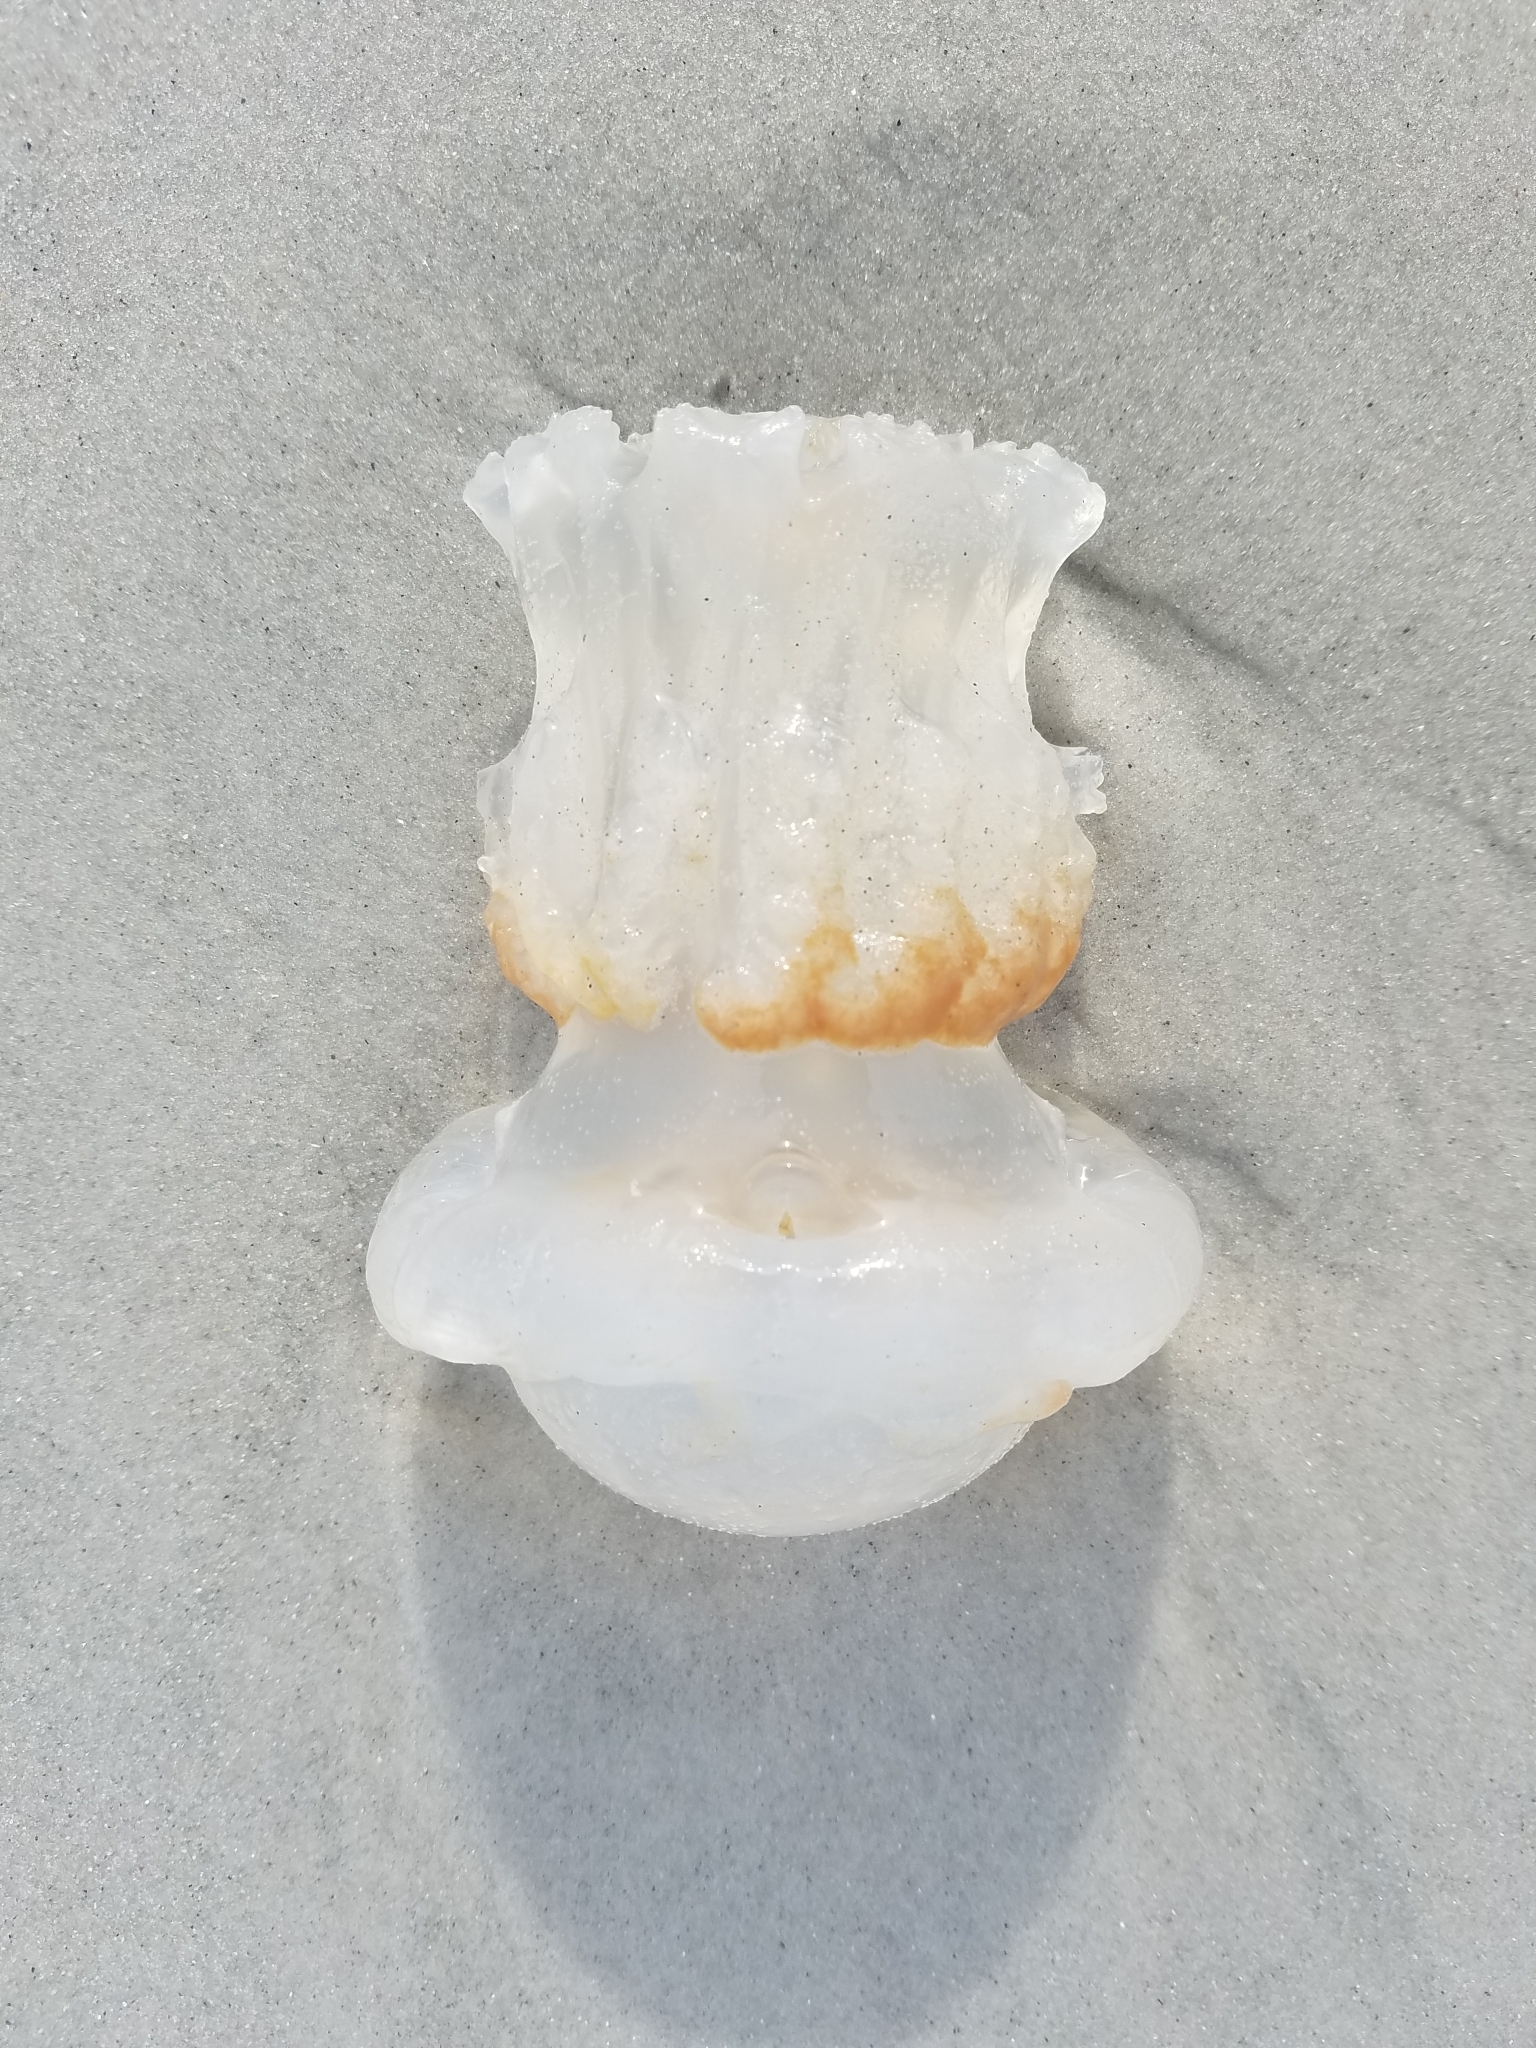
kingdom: Animalia
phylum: Cnidaria
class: Scyphozoa
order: Rhizostomeae
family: Stomolophidae
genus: Stomolophus
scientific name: Stomolophus meleagris
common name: Cabbagehead
